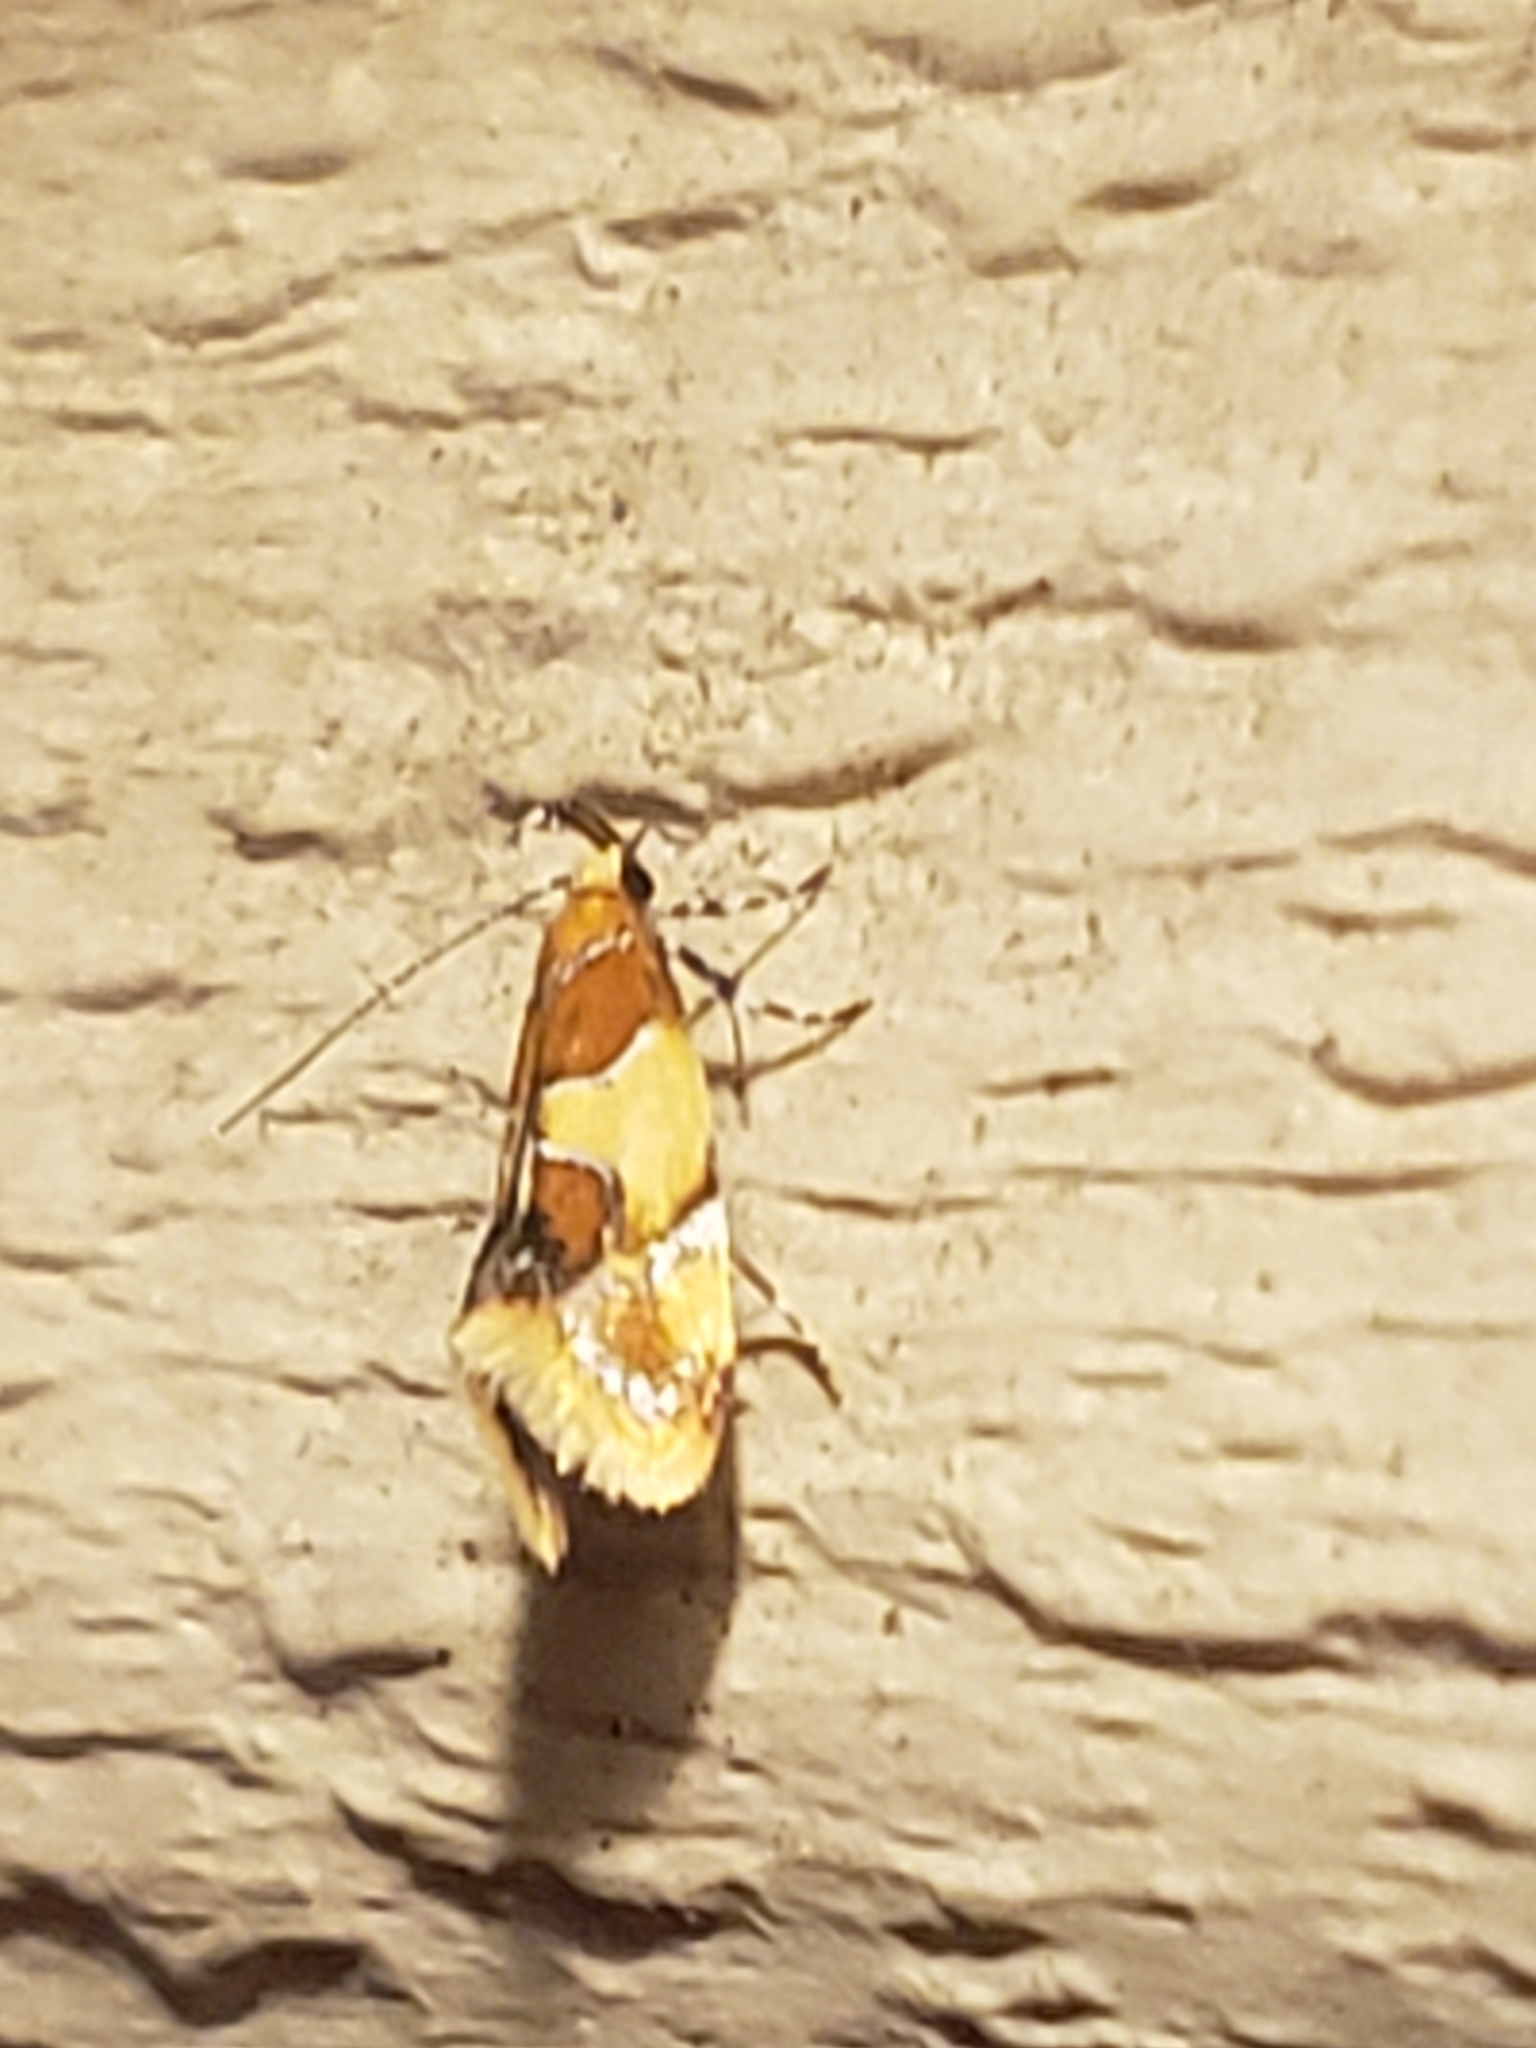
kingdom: Animalia
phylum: Arthropoda
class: Insecta
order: Lepidoptera
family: Oecophoridae
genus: Callima
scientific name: Callima argenticinctella
